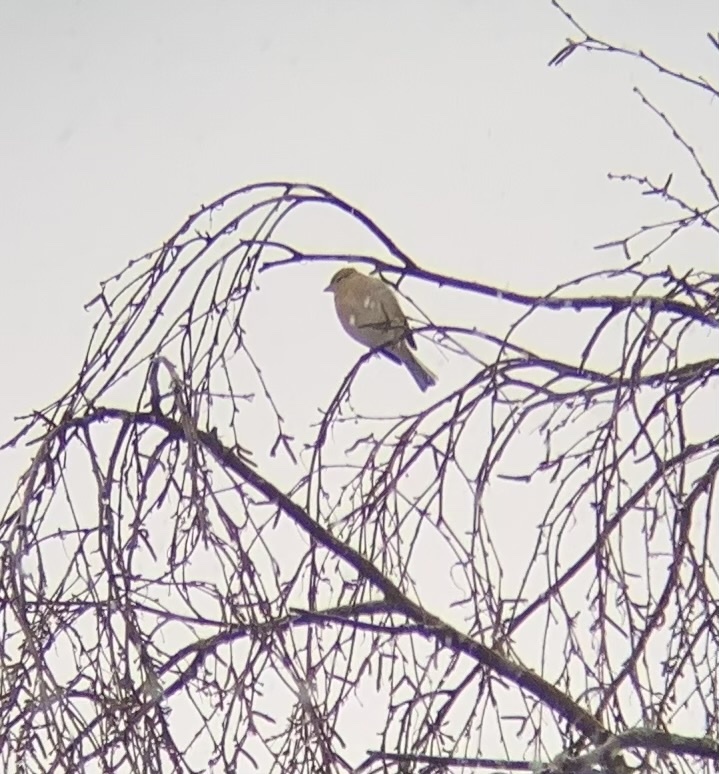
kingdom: Animalia
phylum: Chordata
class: Aves
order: Passeriformes
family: Fringillidae
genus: Fringilla
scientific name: Fringilla coelebs
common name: Common chaffinch
